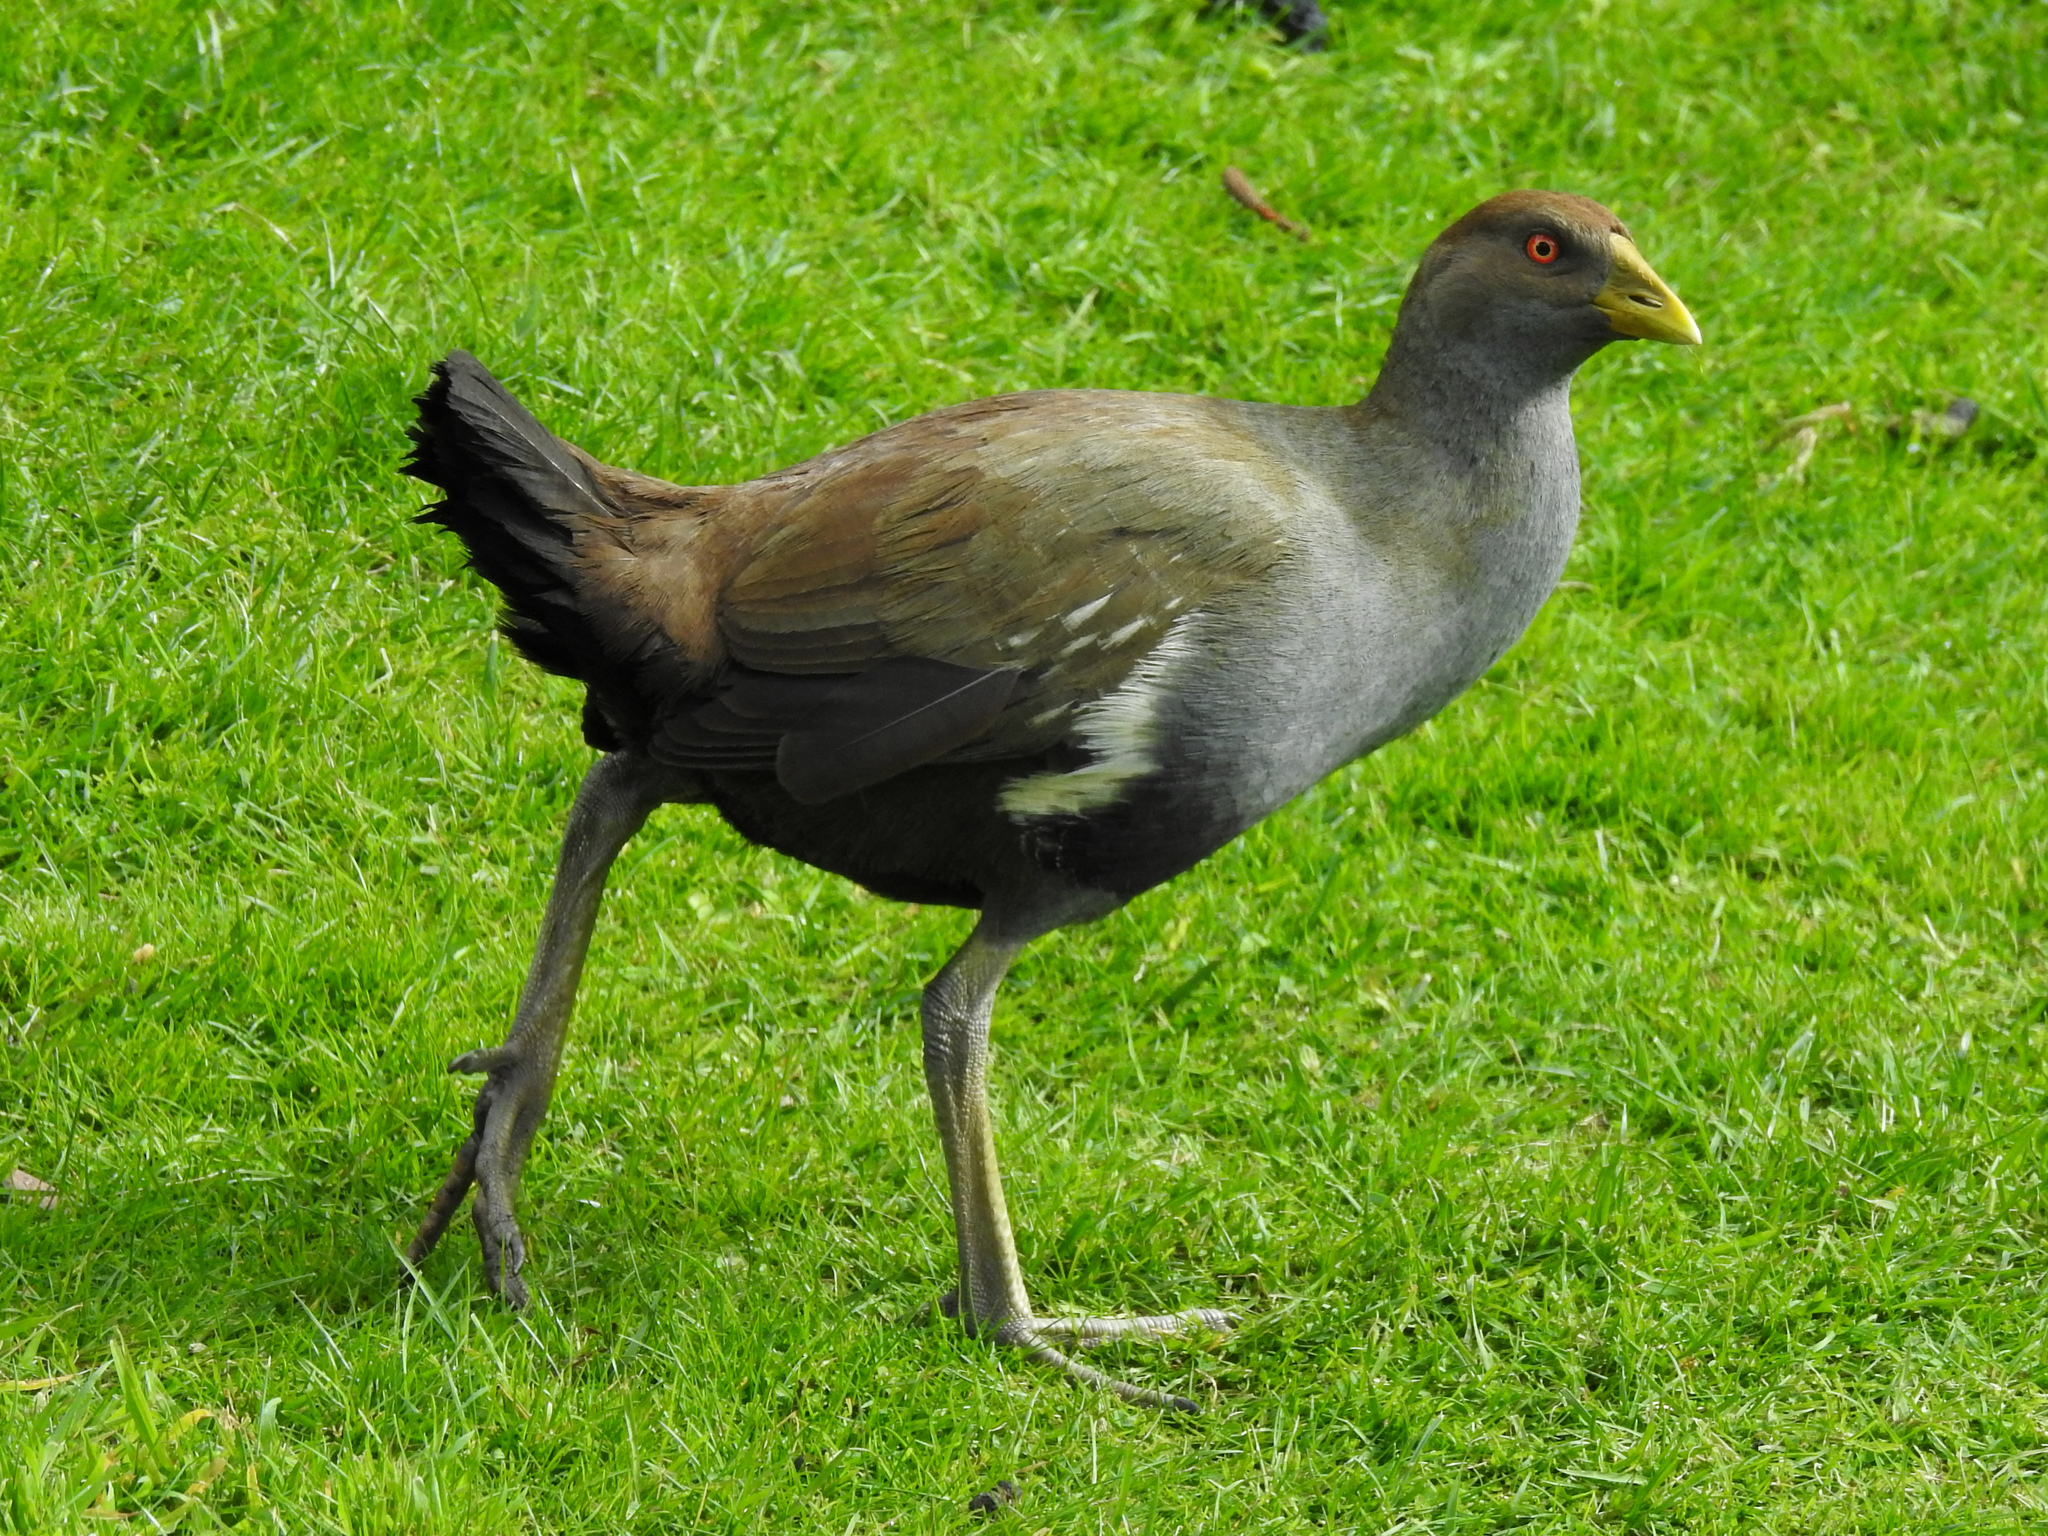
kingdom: Animalia
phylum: Chordata
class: Aves
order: Gruiformes
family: Rallidae
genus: Gallinula
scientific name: Gallinula mortierii
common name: Tasmanian nativehen
